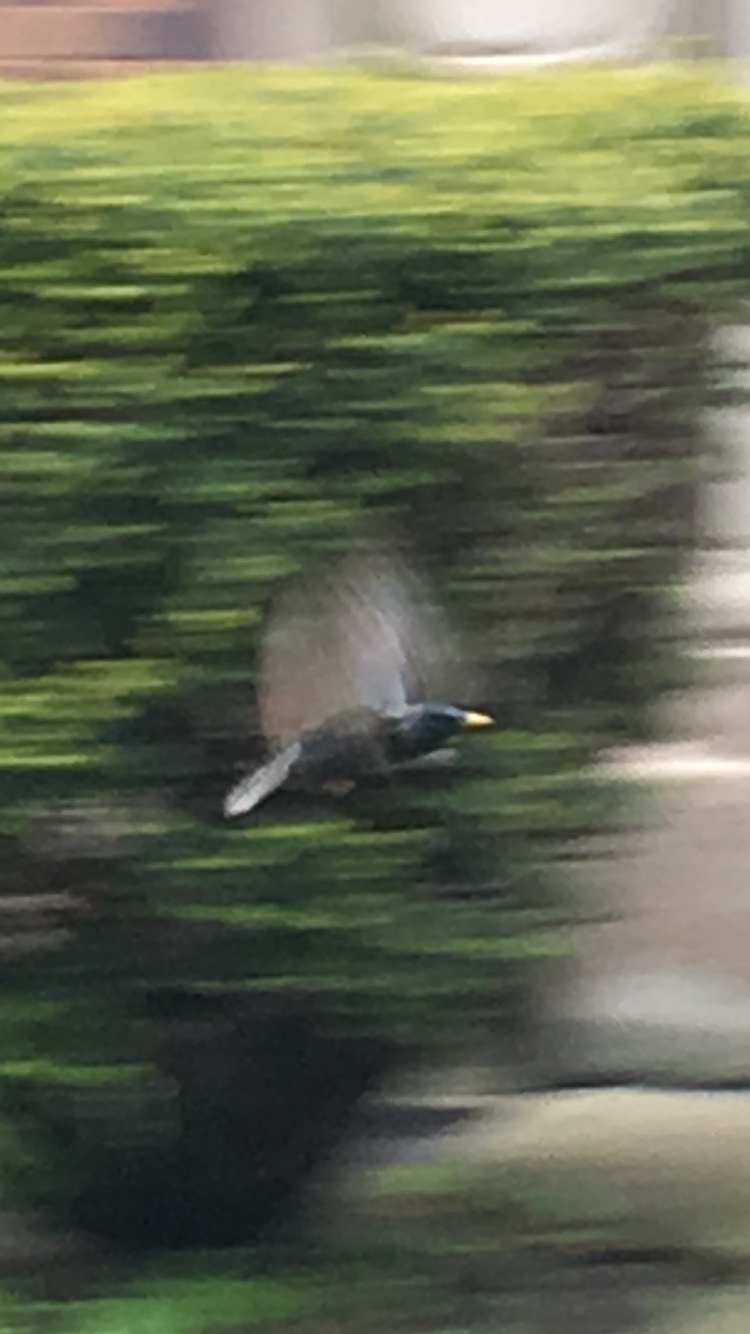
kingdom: Animalia
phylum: Chordata
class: Aves
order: Passeriformes
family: Sturnidae
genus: Sturnus
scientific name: Sturnus vulgaris
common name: Common starling
